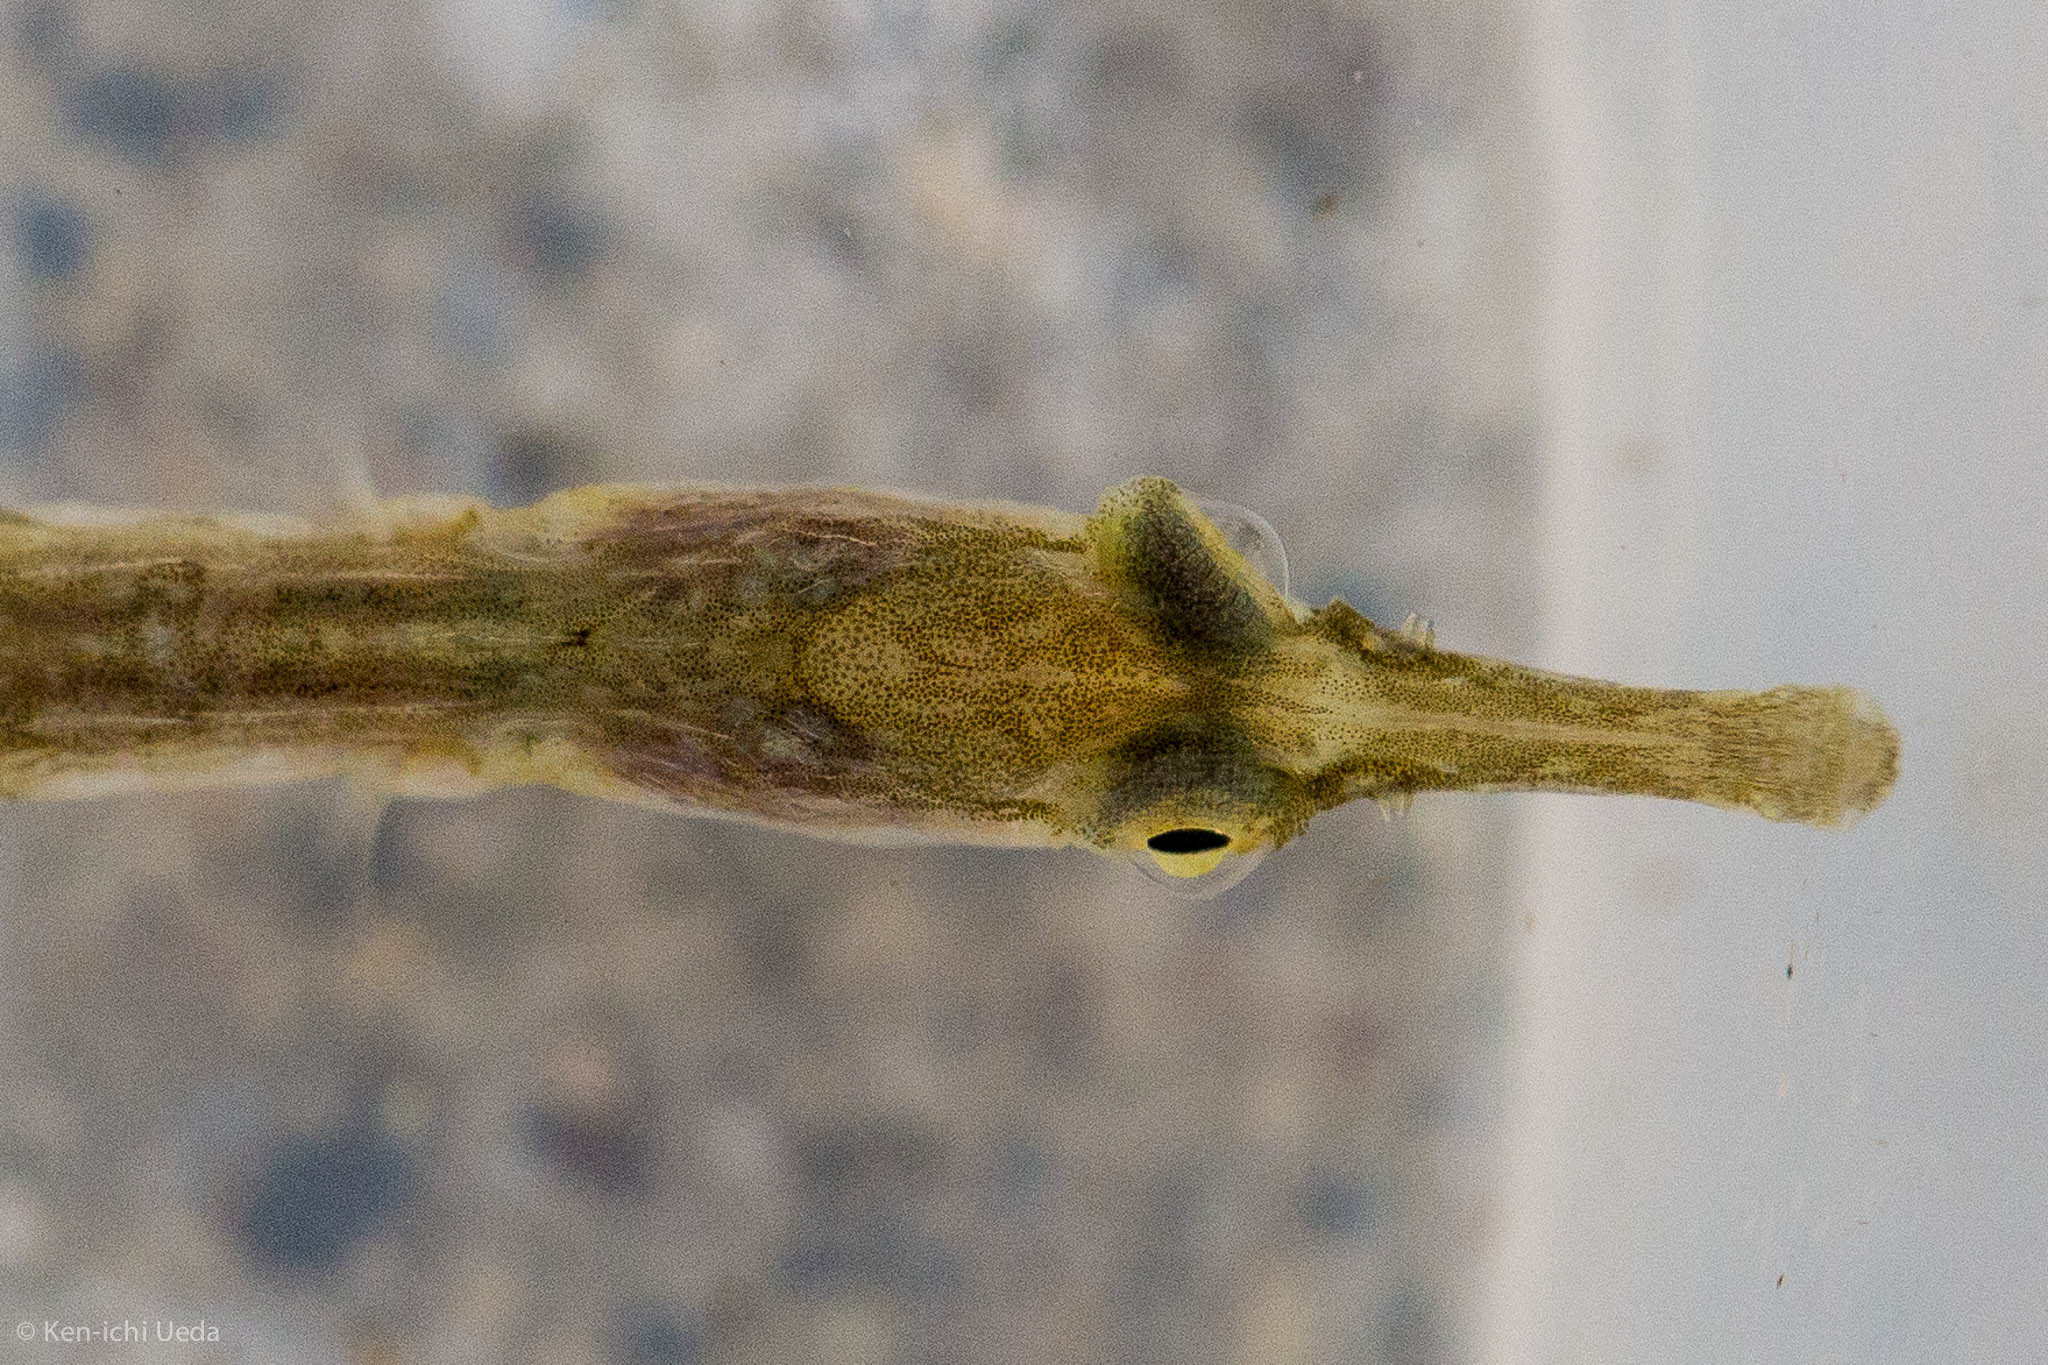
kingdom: Animalia
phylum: Chordata
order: Syngnathiformes
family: Syngnathidae
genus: Syngnathus
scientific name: Syngnathus californiensis
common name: Great pipefish
